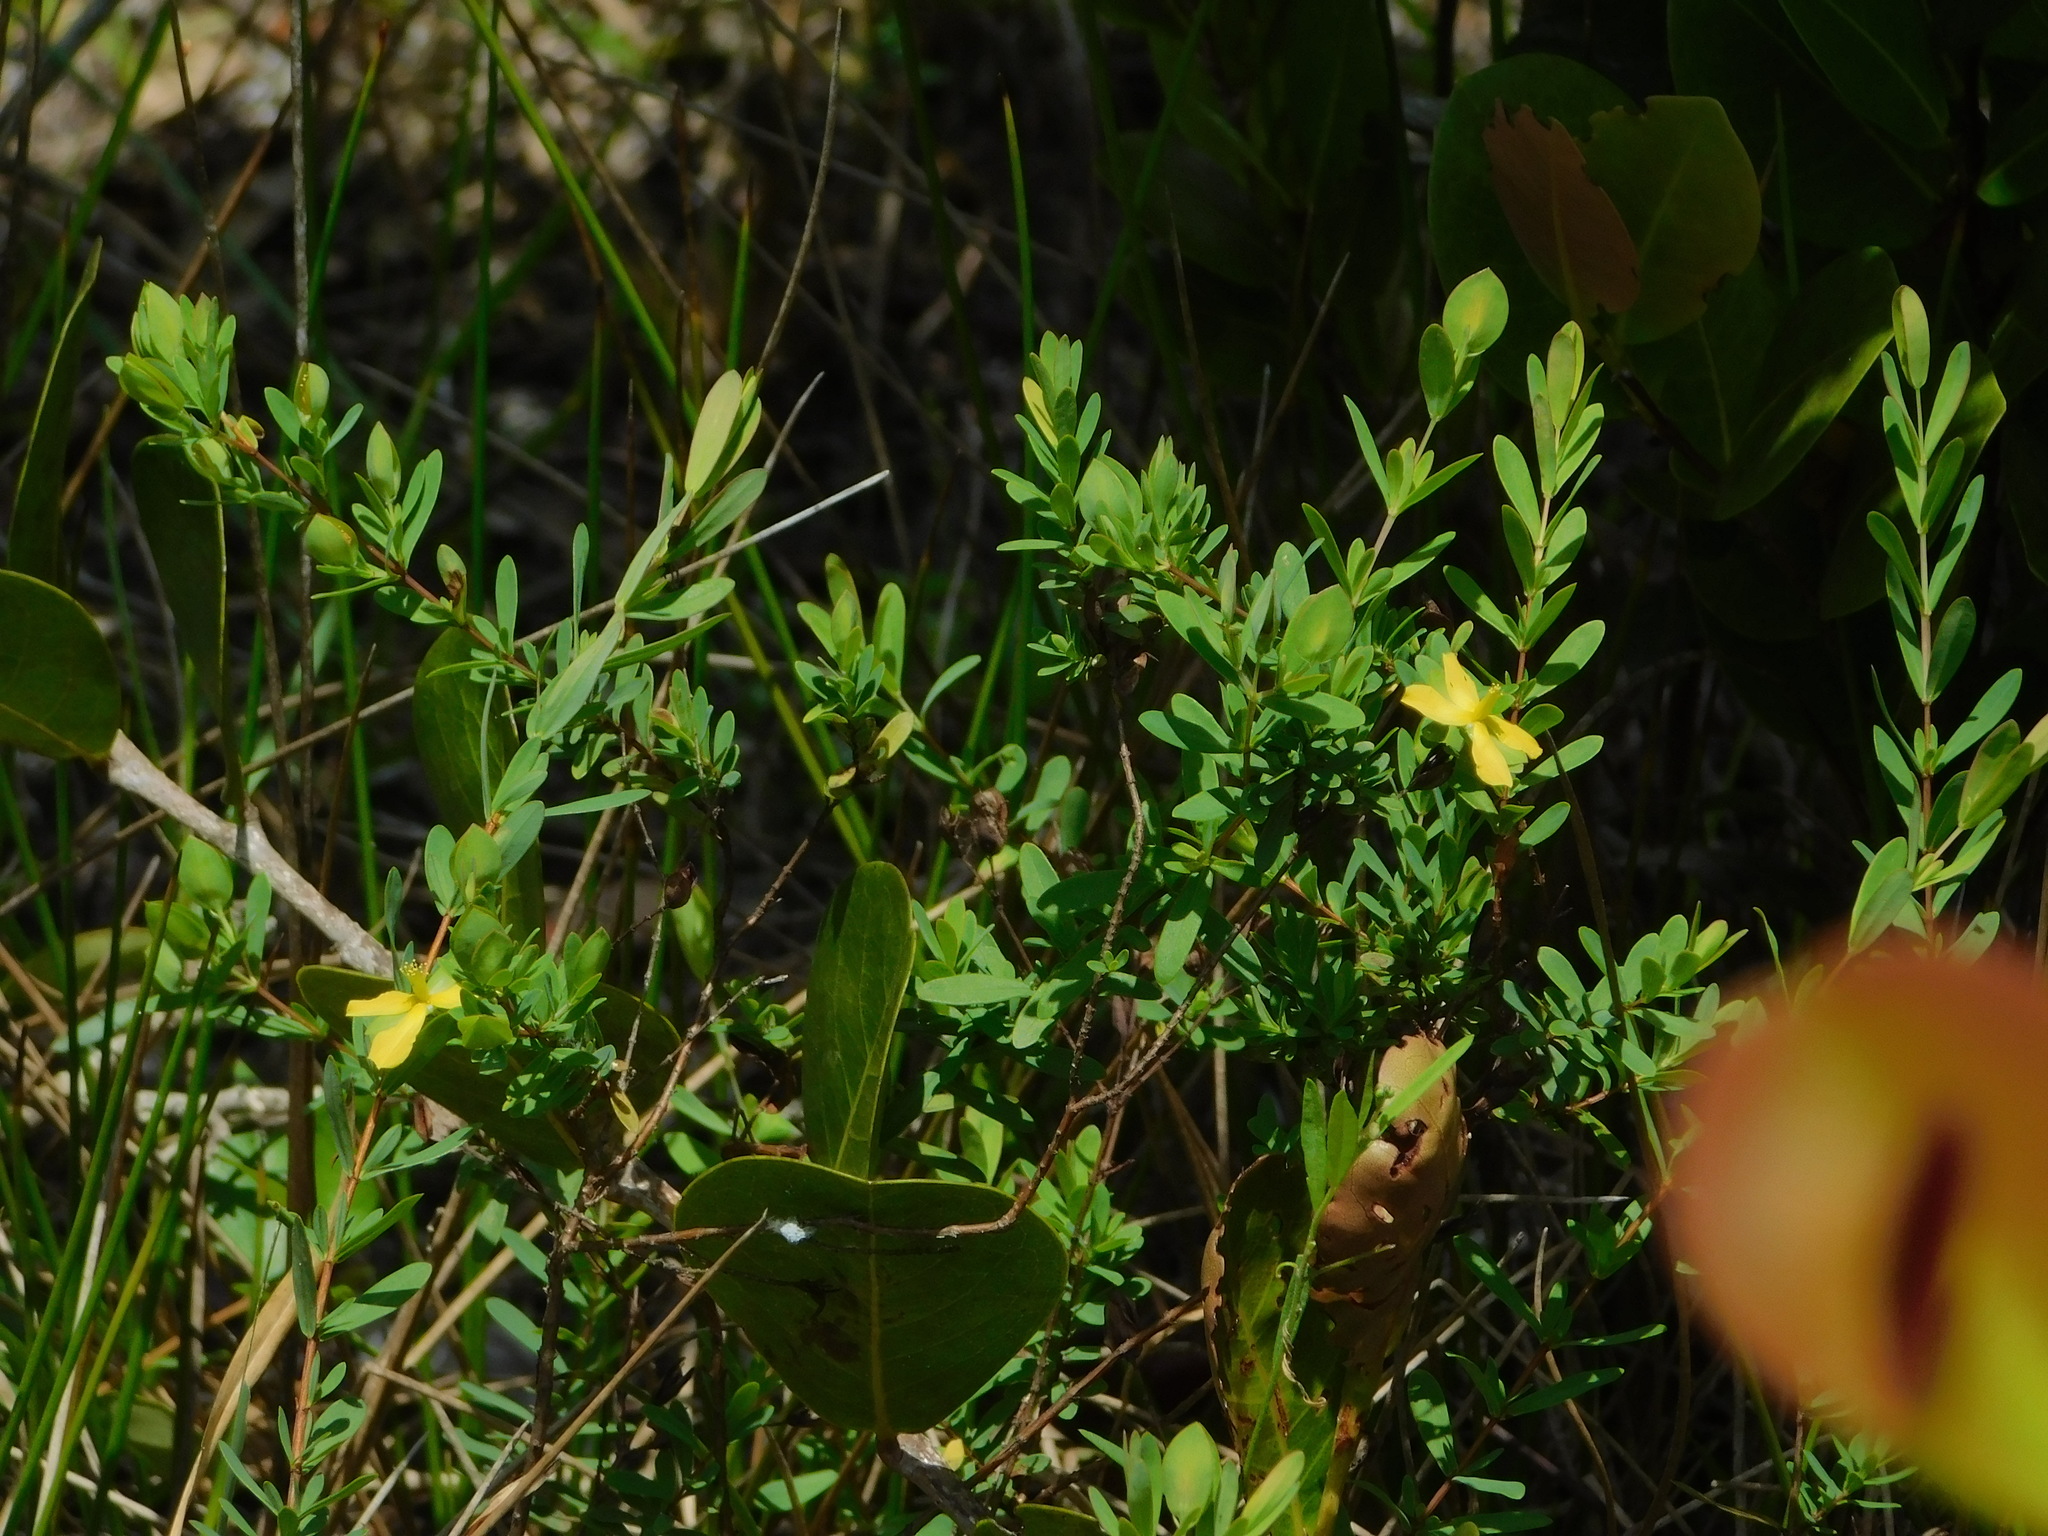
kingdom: Plantae
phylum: Tracheophyta
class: Magnoliopsida
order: Malpighiales
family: Hypericaceae
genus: Hypericum
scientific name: Hypericum hypericoides
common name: St. andrew's cross
